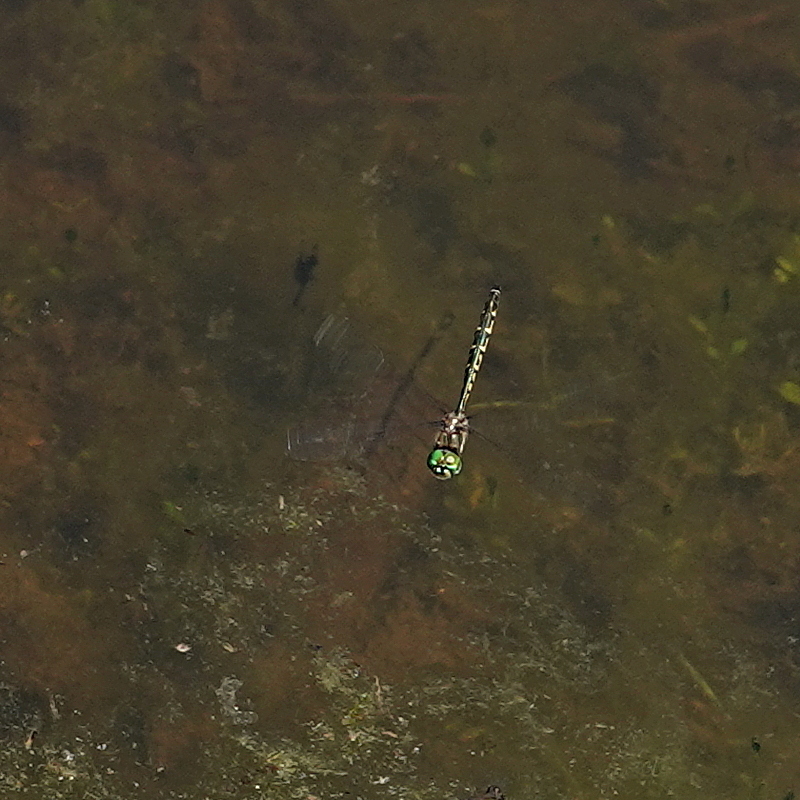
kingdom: Animalia
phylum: Arthropoda
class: Insecta
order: Odonata
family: Corduliidae
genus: Hemicordulia
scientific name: Hemicordulia australiae
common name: Sentry dragonfly
